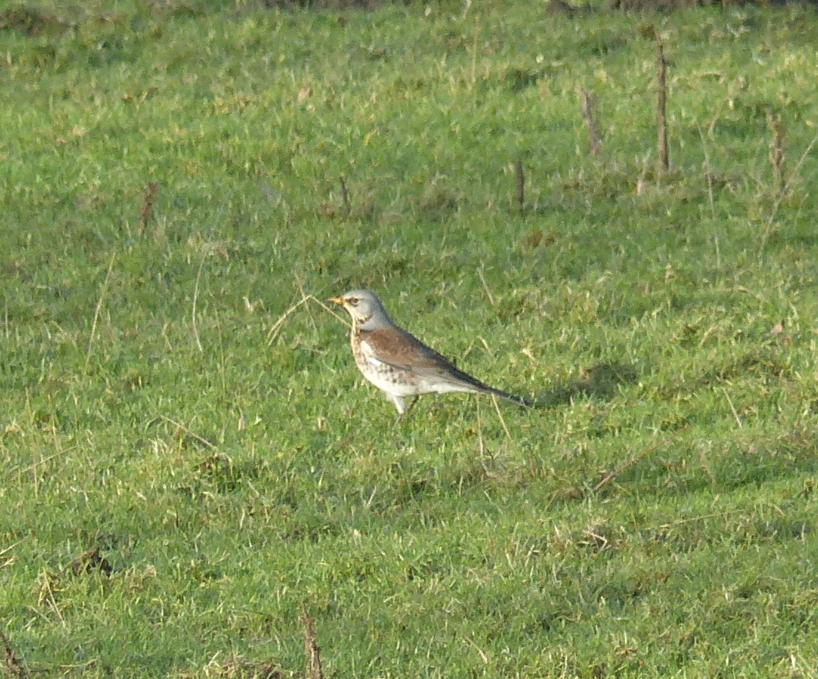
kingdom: Animalia
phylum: Chordata
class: Aves
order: Passeriformes
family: Turdidae
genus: Turdus
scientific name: Turdus pilaris
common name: Fieldfare
